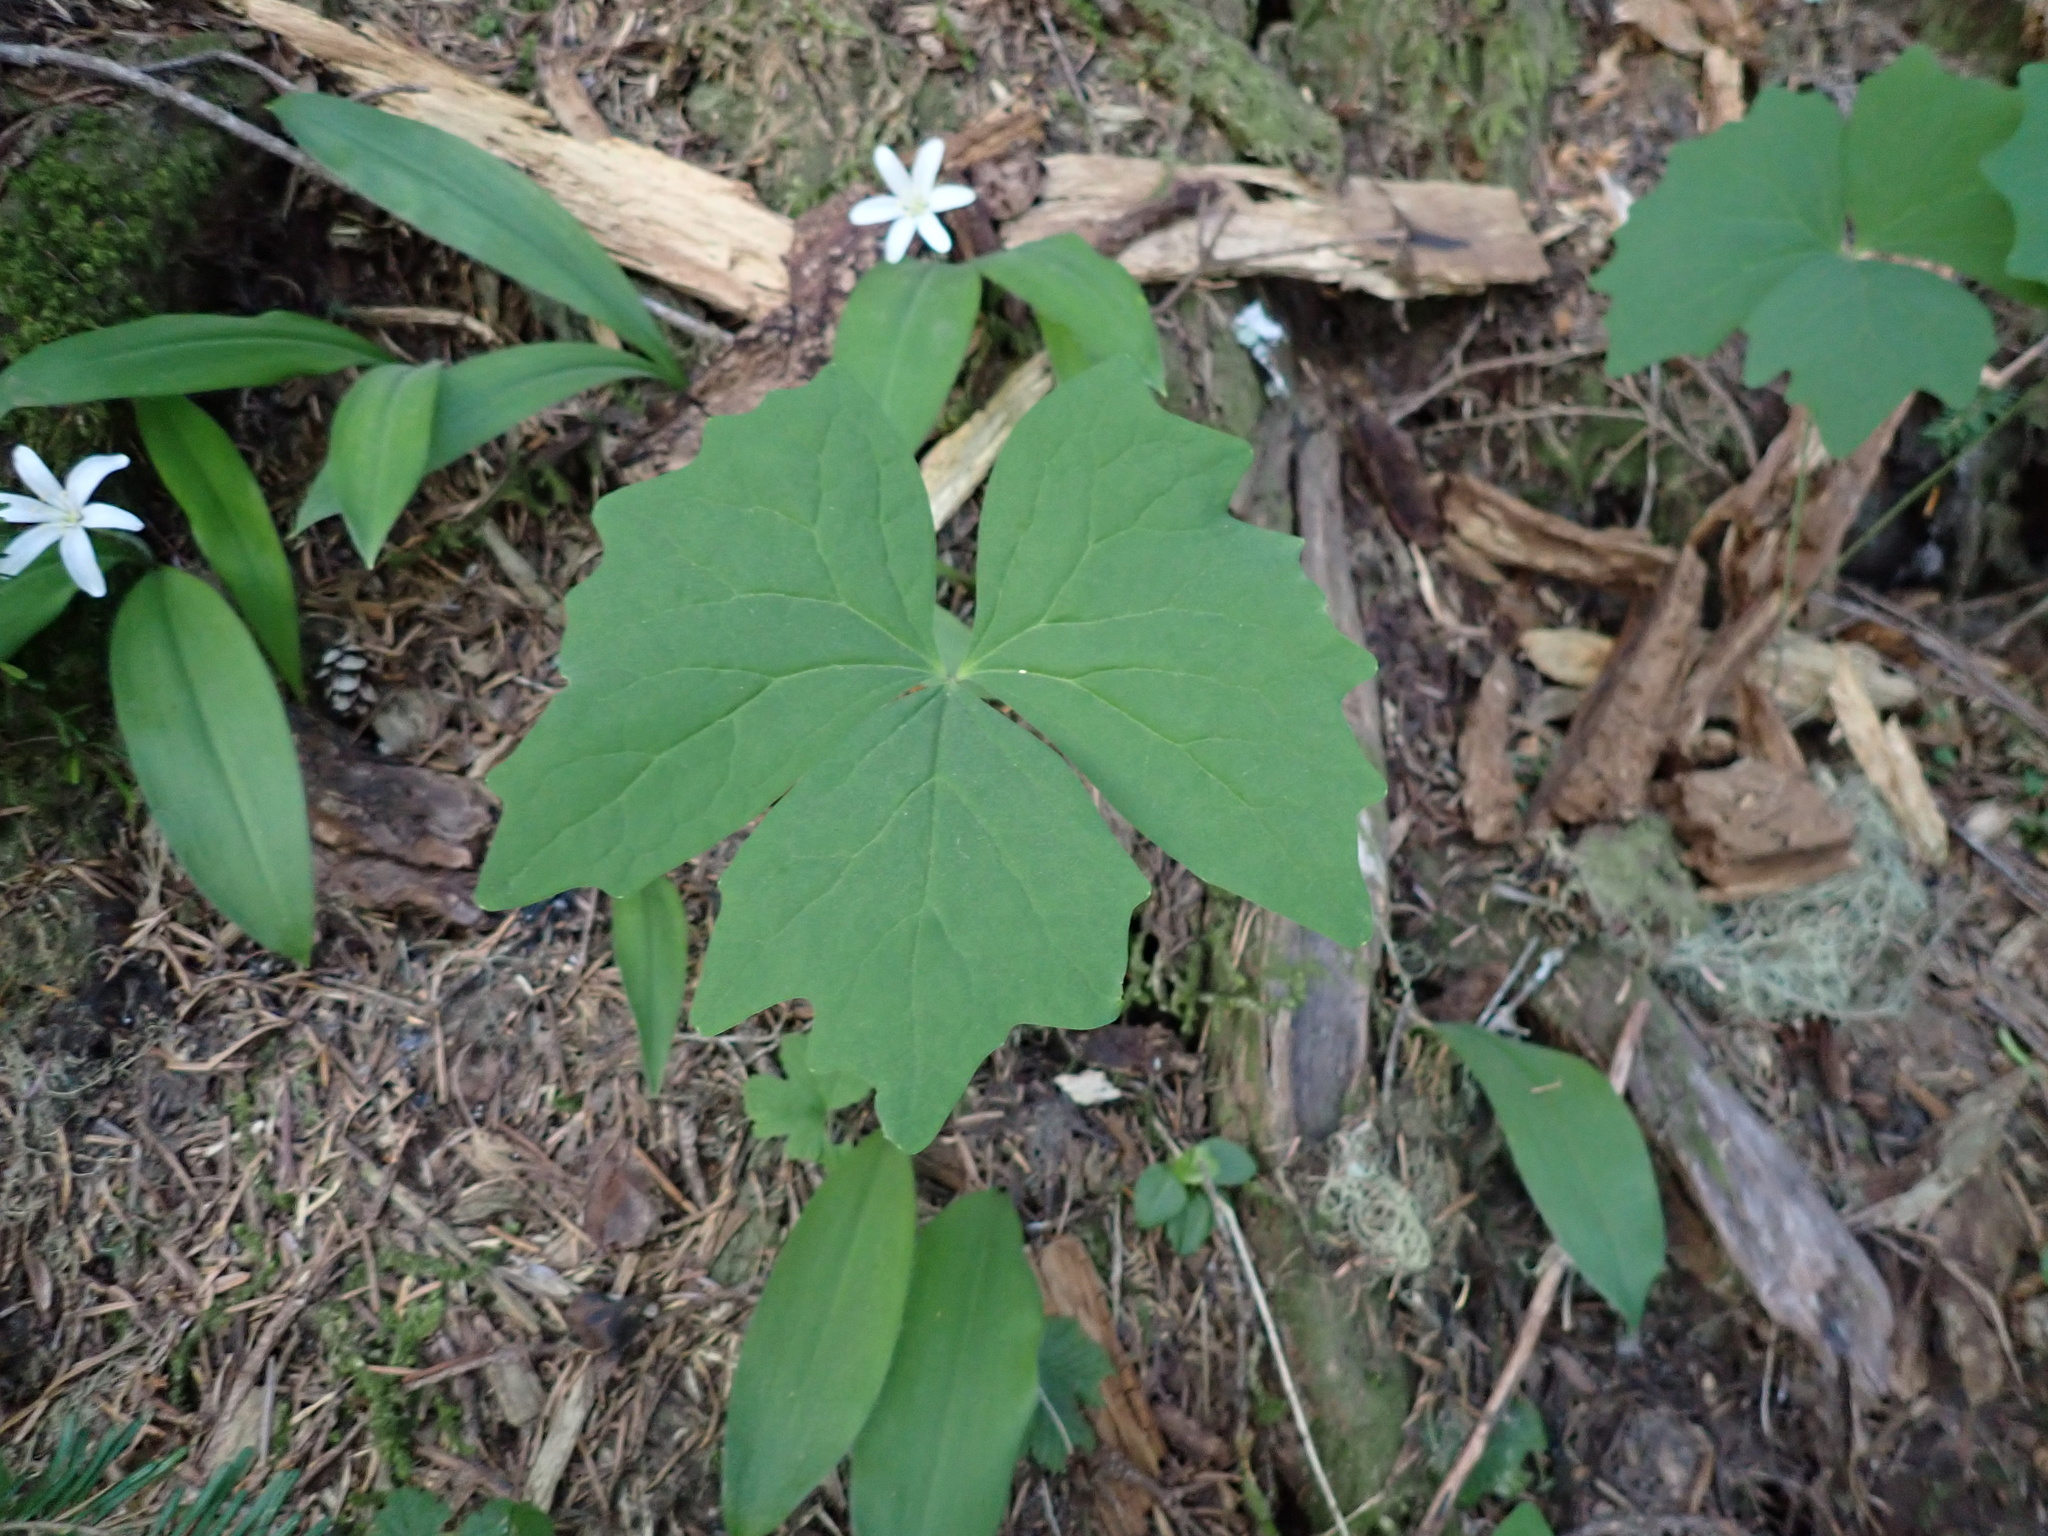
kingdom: Plantae
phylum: Tracheophyta
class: Magnoliopsida
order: Ranunculales
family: Berberidaceae
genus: Achlys
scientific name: Achlys triphylla
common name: Vanilla-leaf
